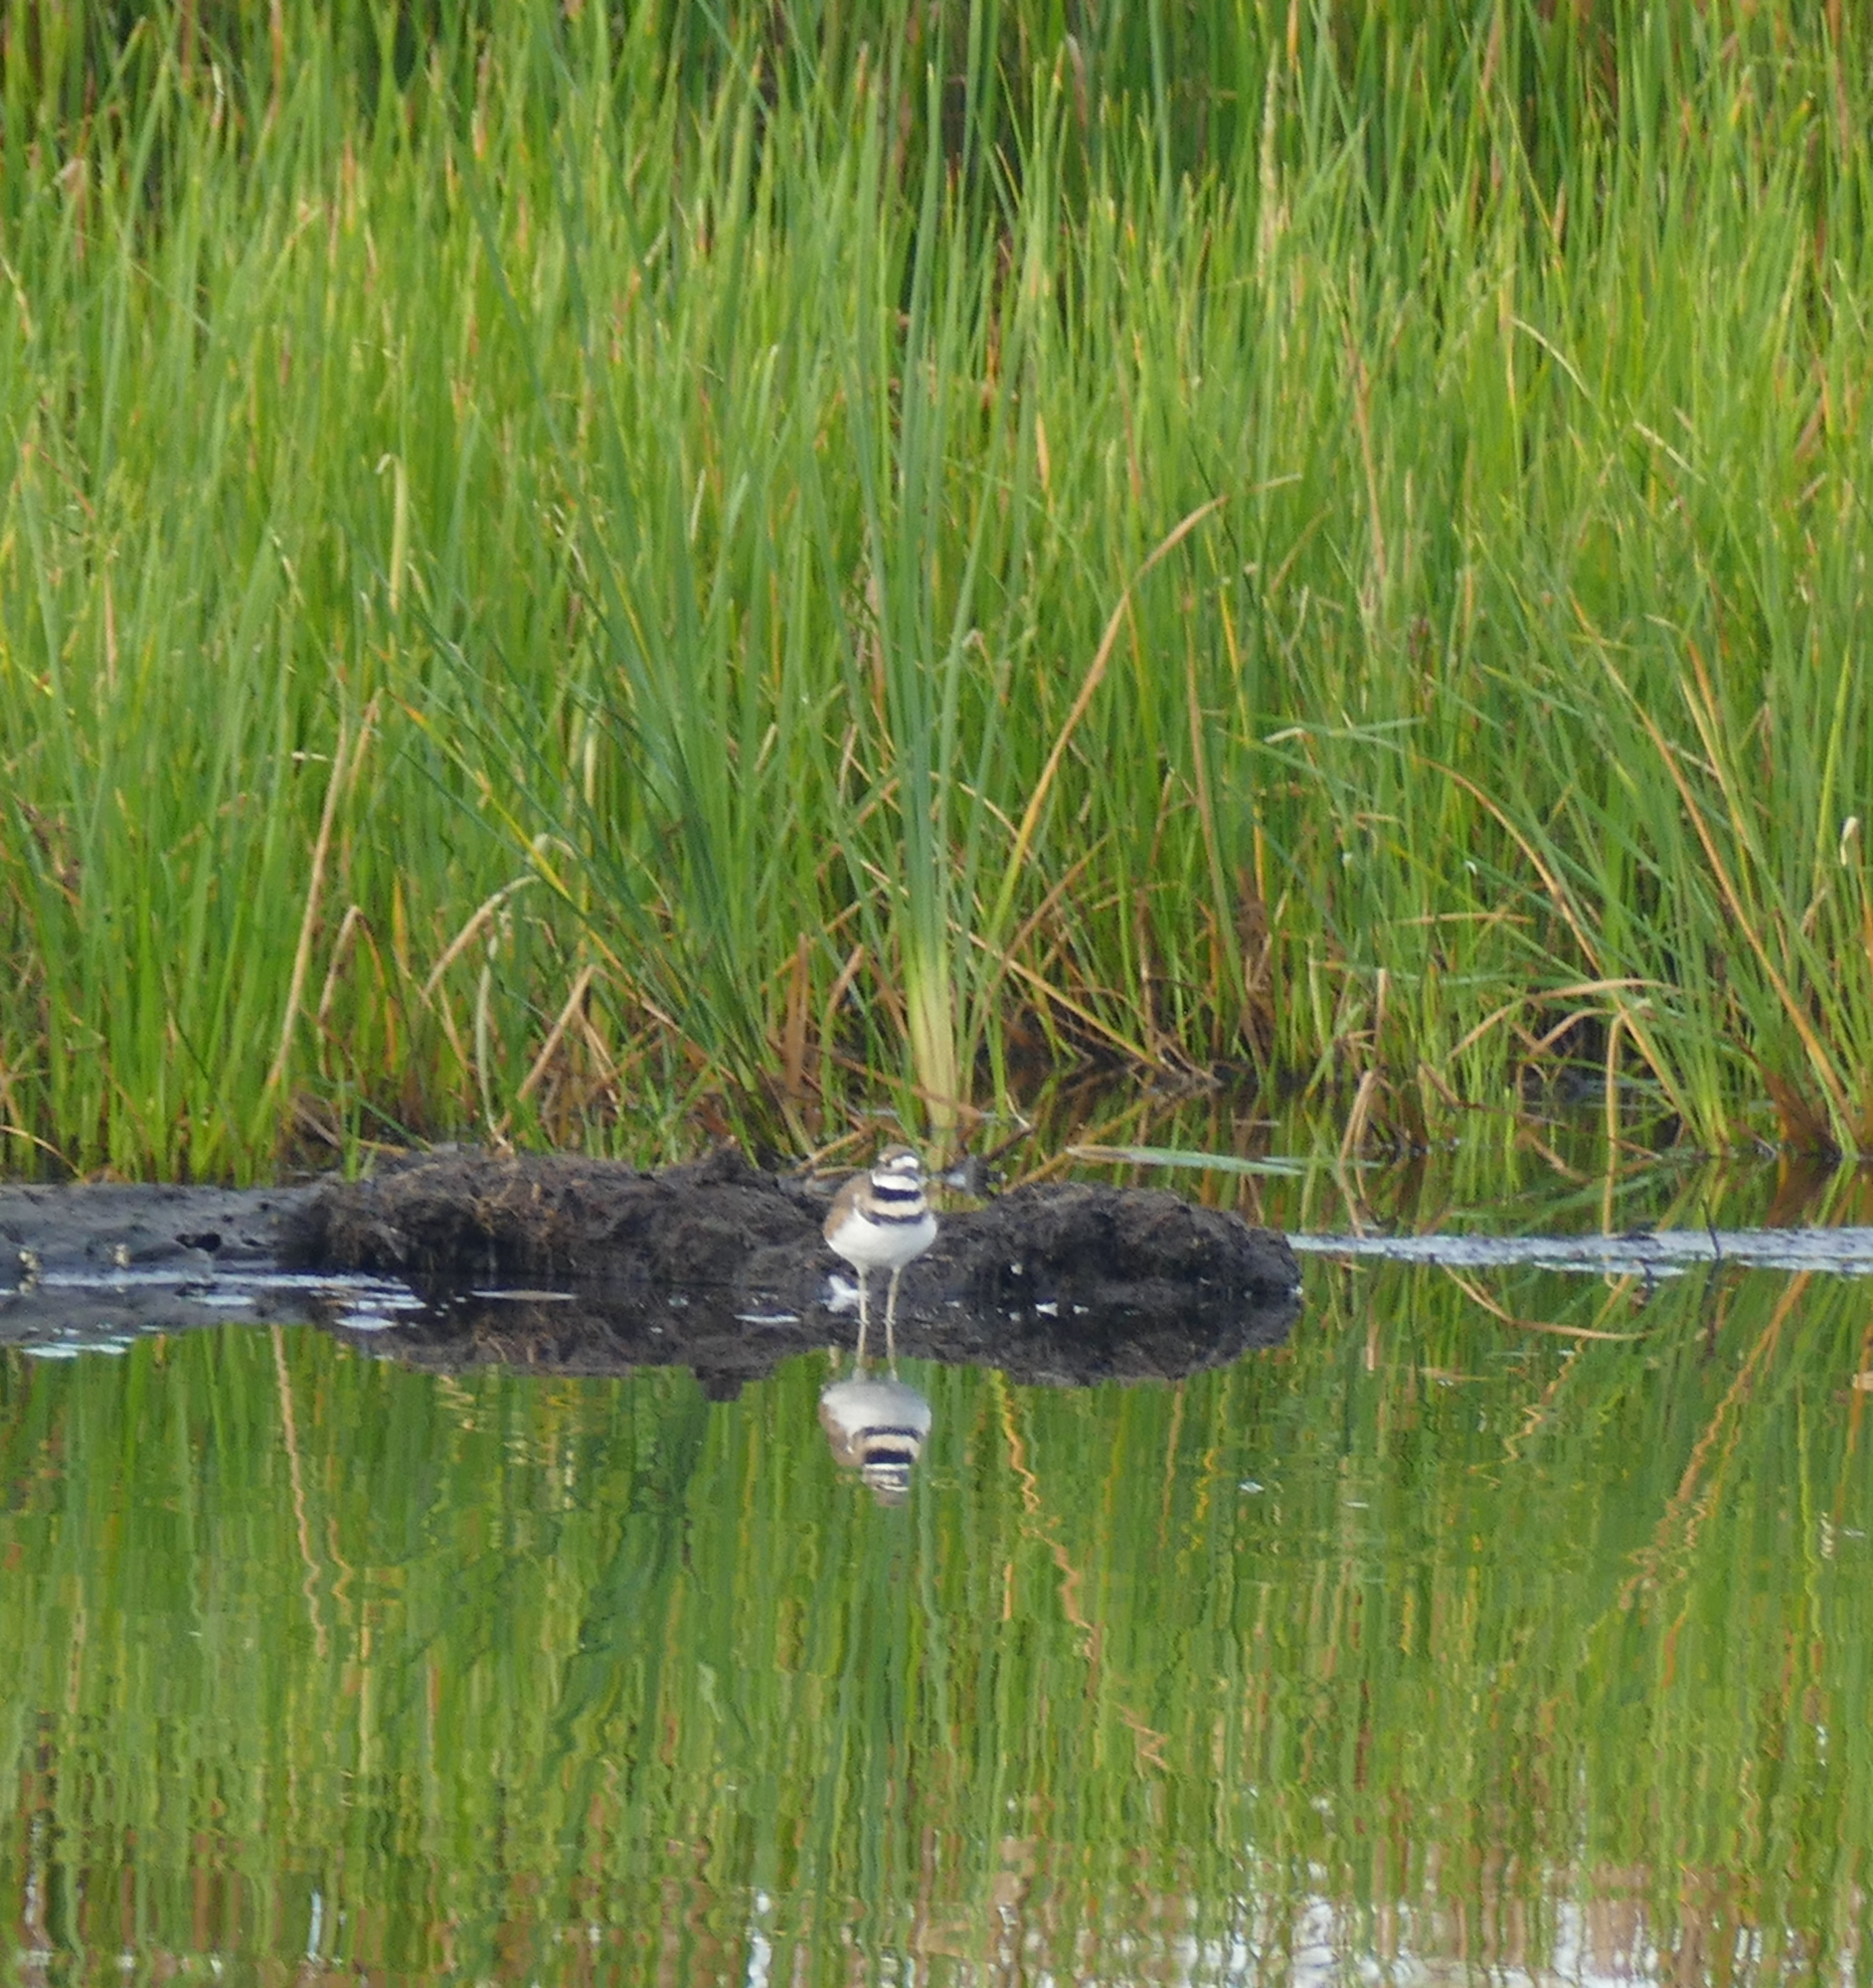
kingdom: Animalia
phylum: Chordata
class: Aves
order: Charadriiformes
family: Charadriidae
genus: Charadrius
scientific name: Charadrius vociferus
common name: Killdeer
